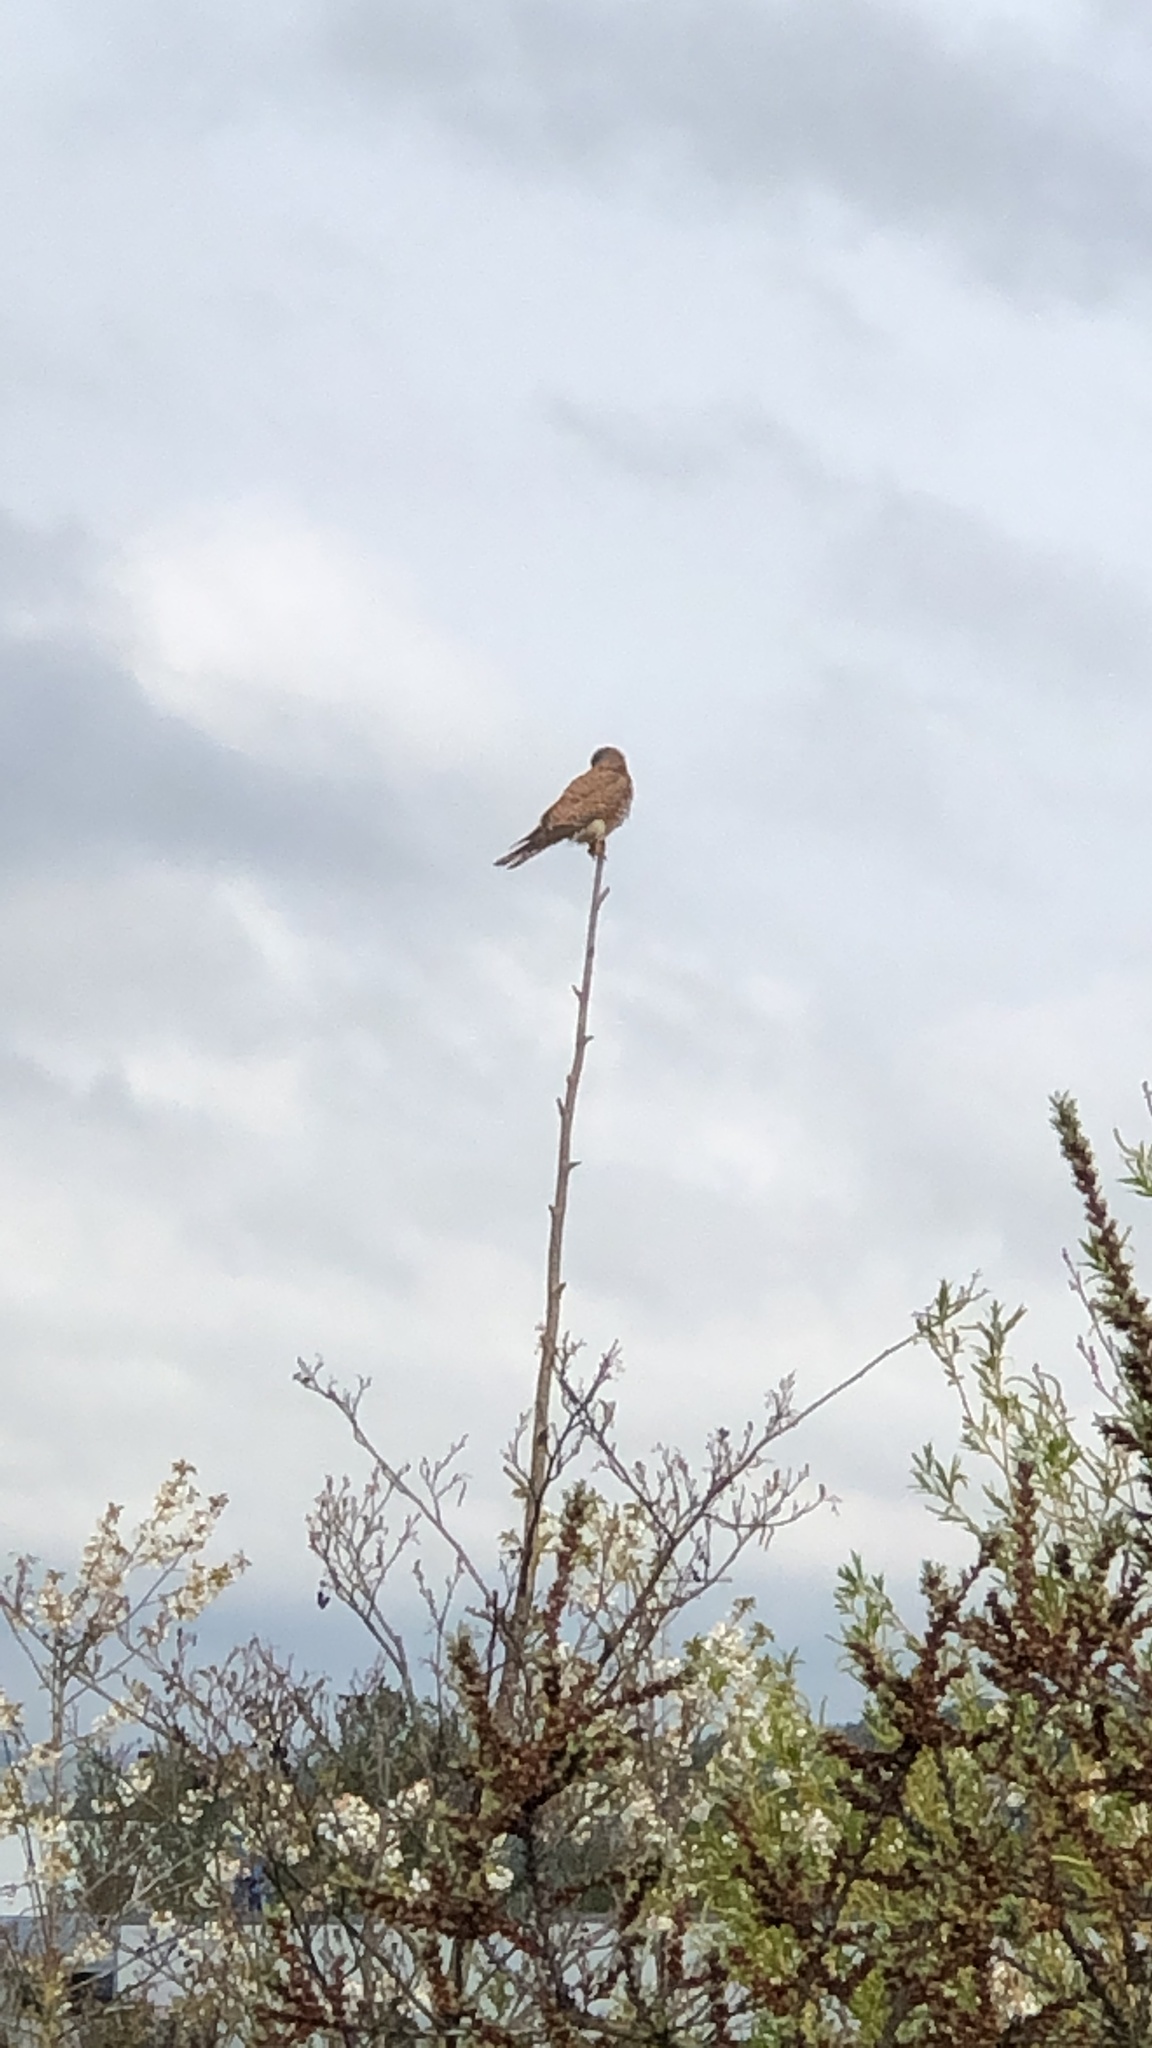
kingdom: Animalia
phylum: Chordata
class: Aves
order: Falconiformes
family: Falconidae
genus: Falco
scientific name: Falco tinnunculus
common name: Common kestrel
